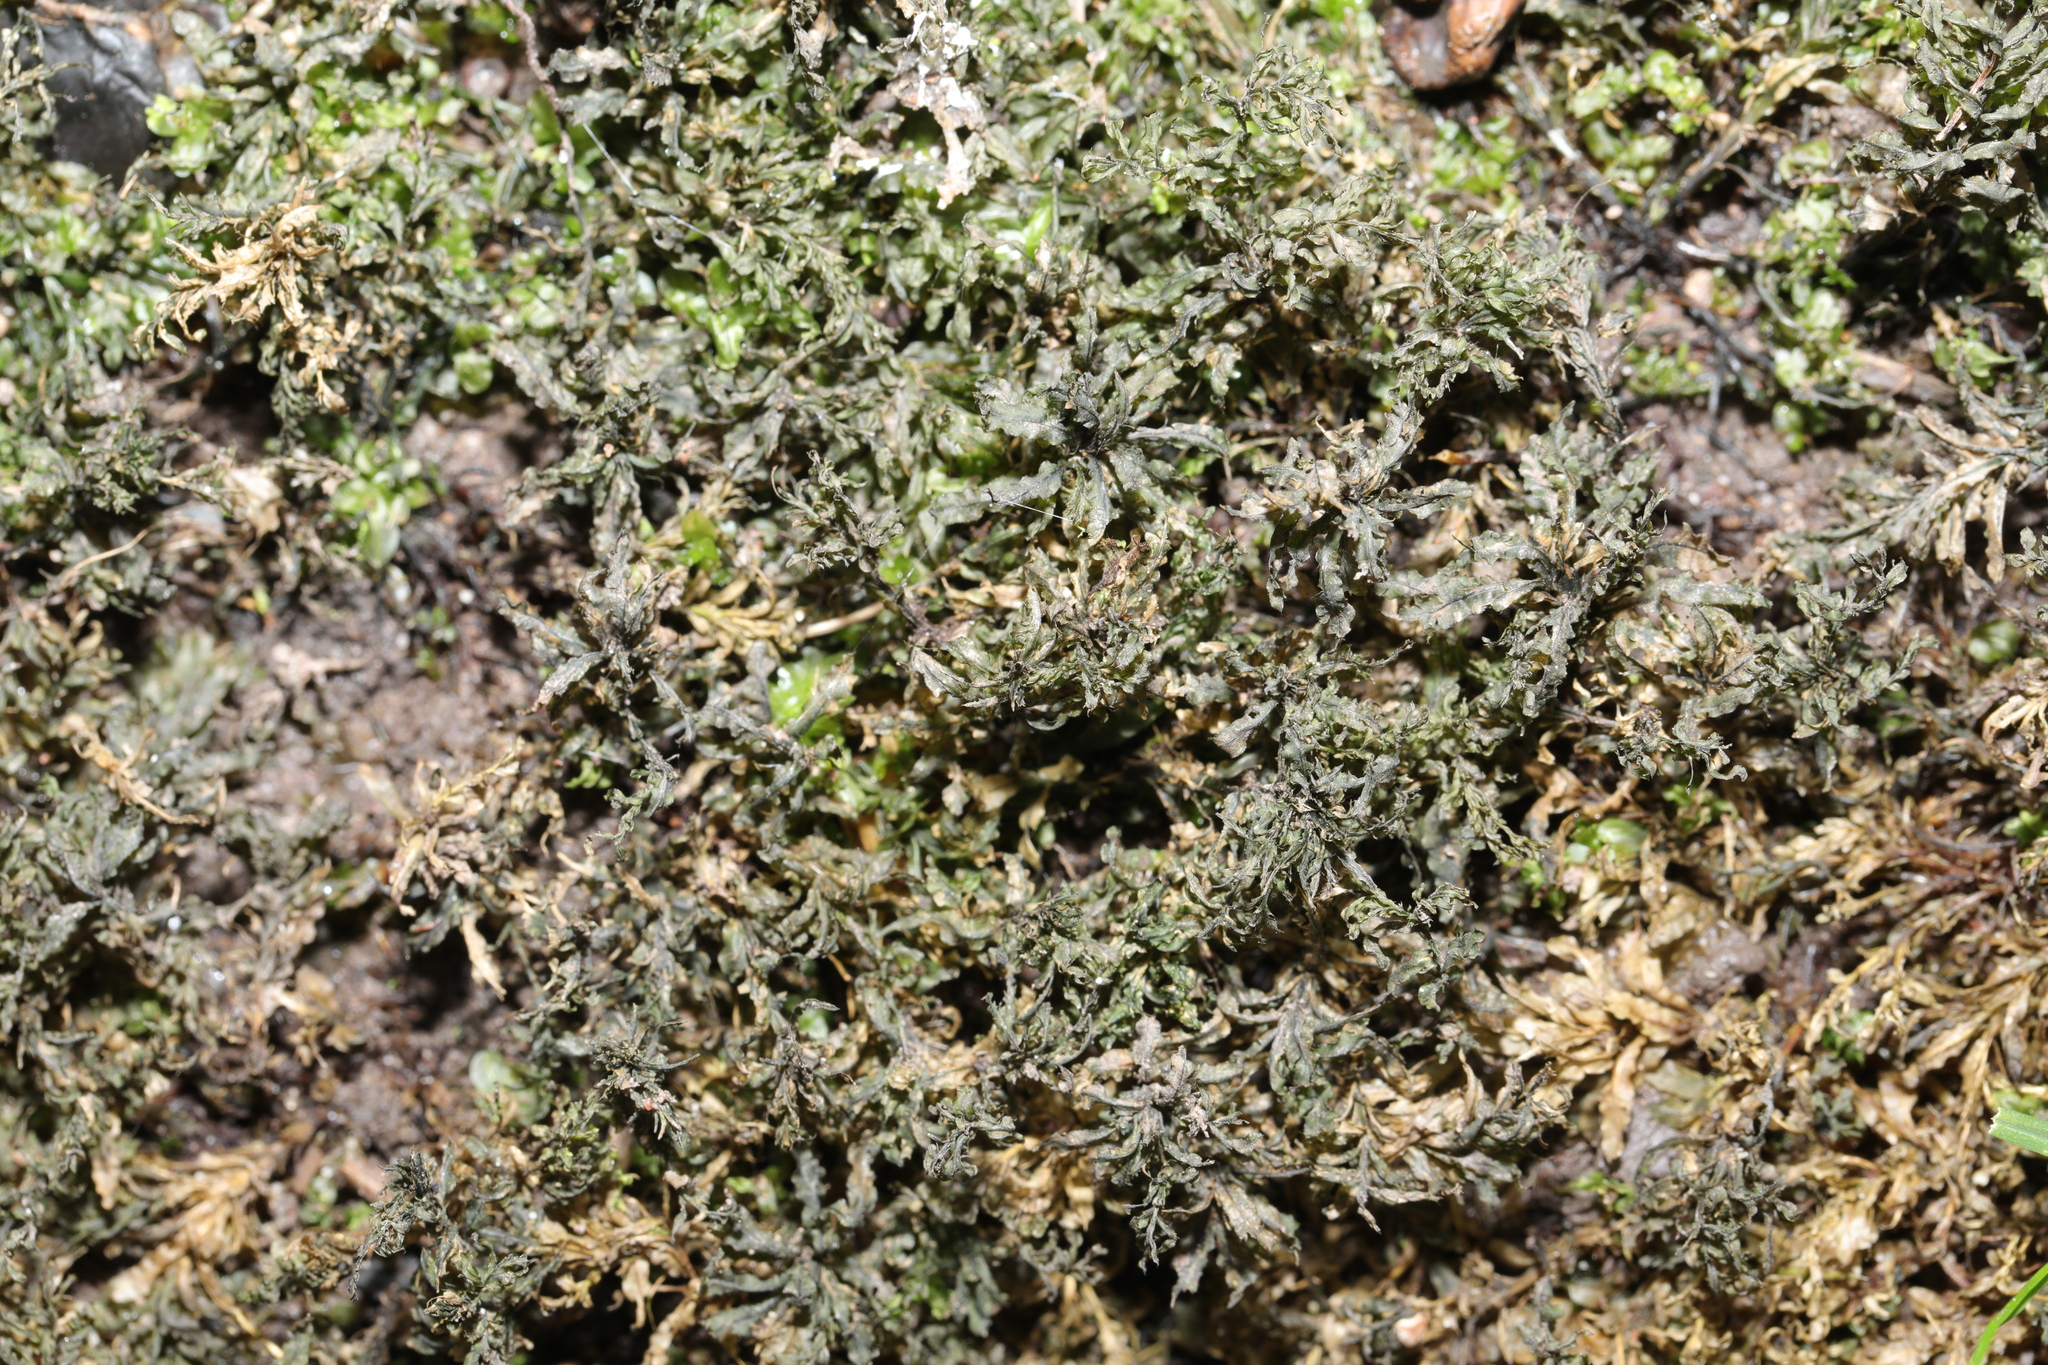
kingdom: Plantae
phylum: Bryophyta
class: Bryopsida
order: Bryales
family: Mniaceae
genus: Plagiomnium
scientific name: Plagiomnium undulatum
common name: Hart's-tongue thyme-moss
